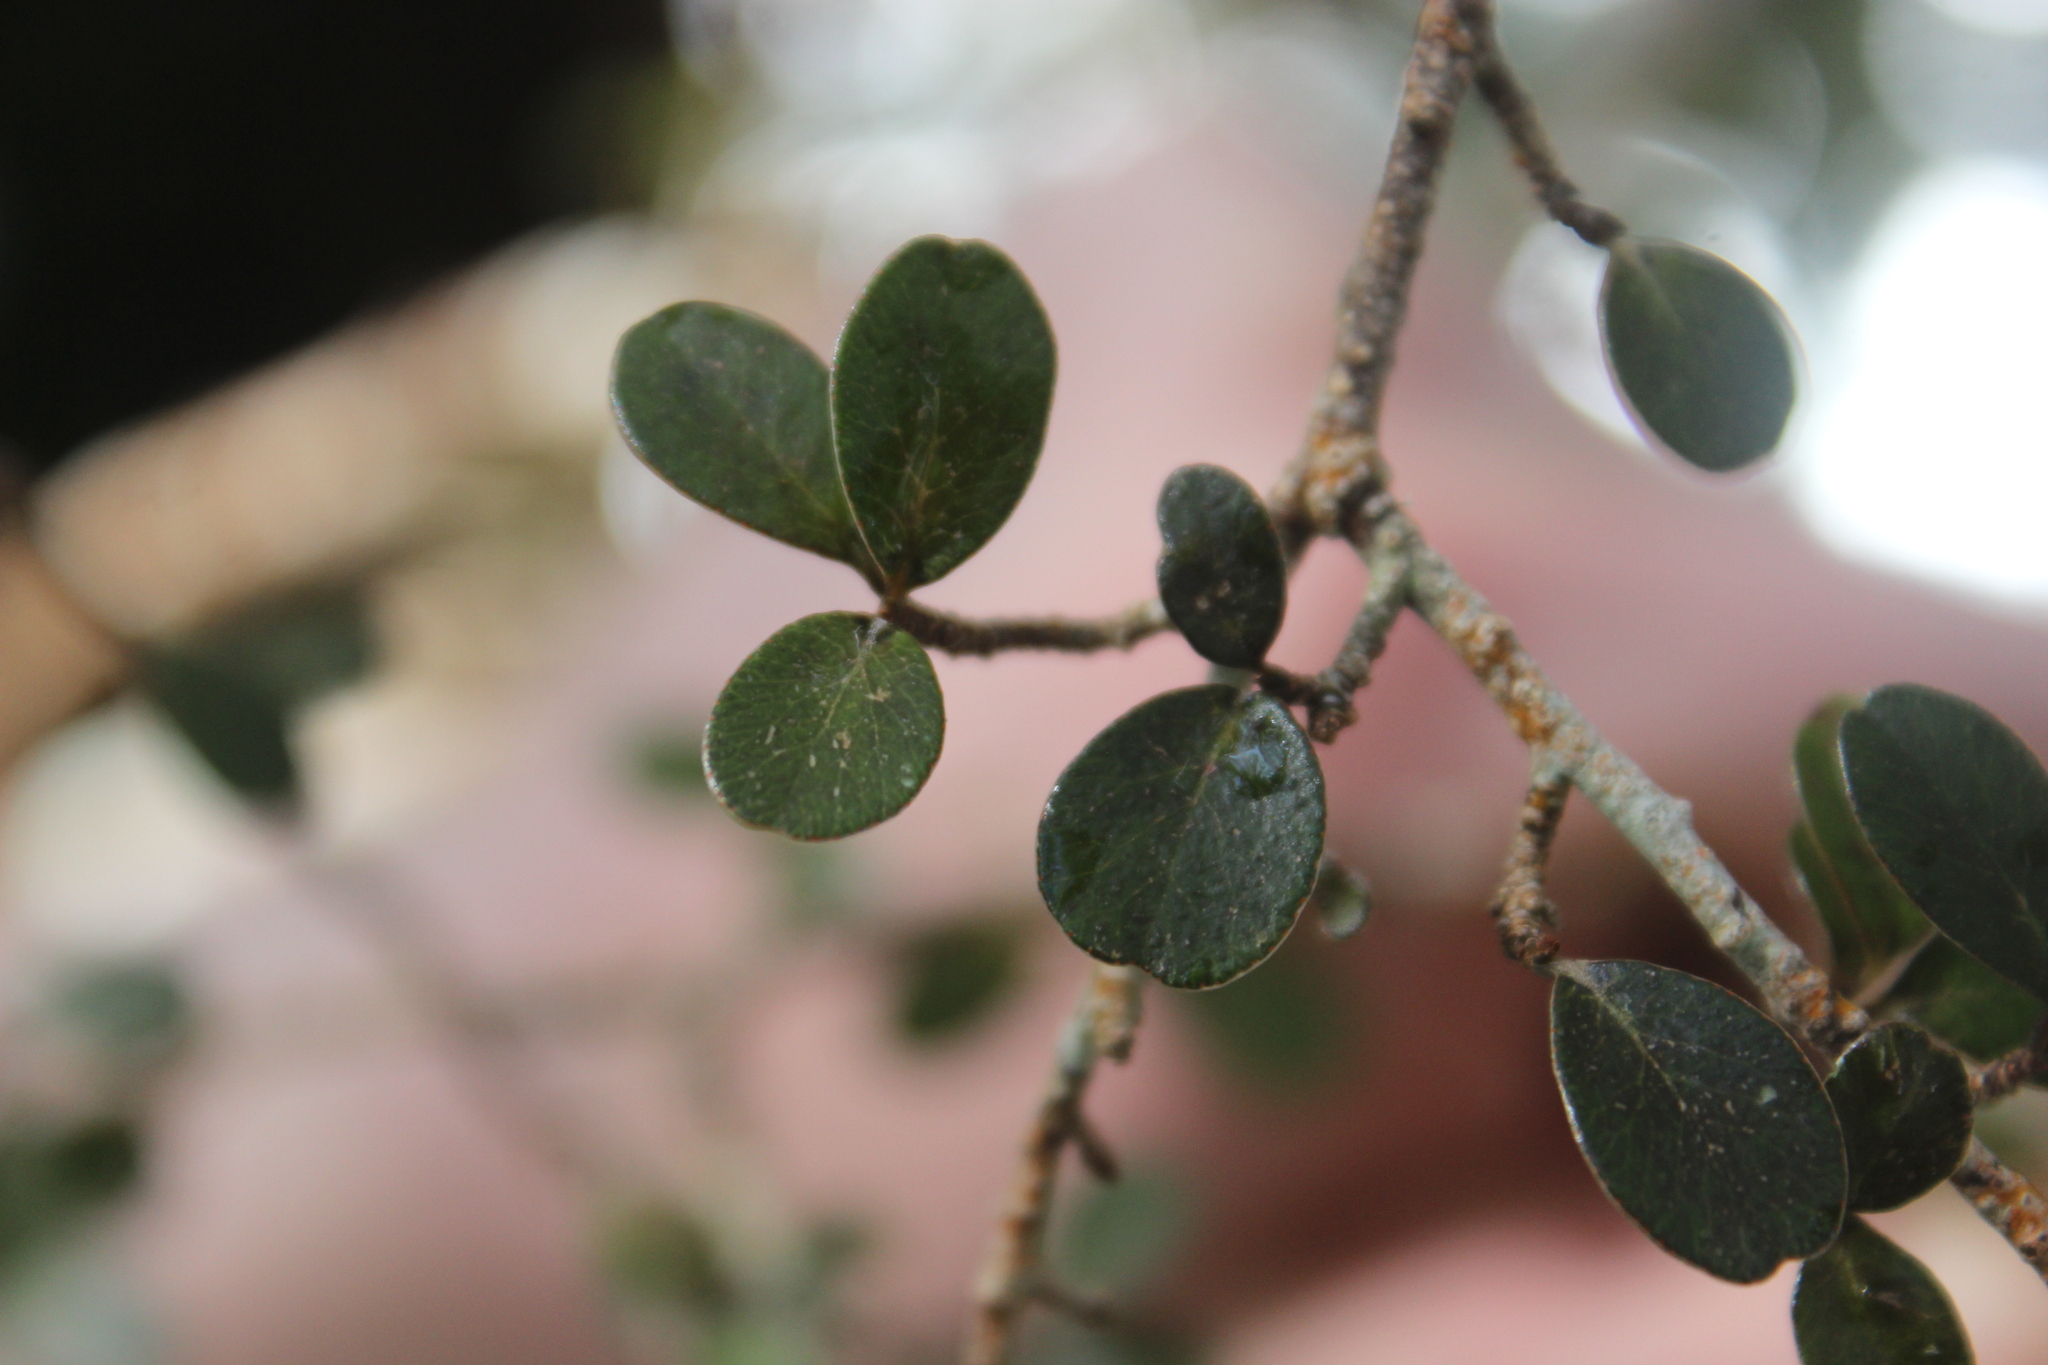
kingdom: Plantae
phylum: Tracheophyta
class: Magnoliopsida
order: Ericales
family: Primulaceae
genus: Myrsine
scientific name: Myrsine umbricola
